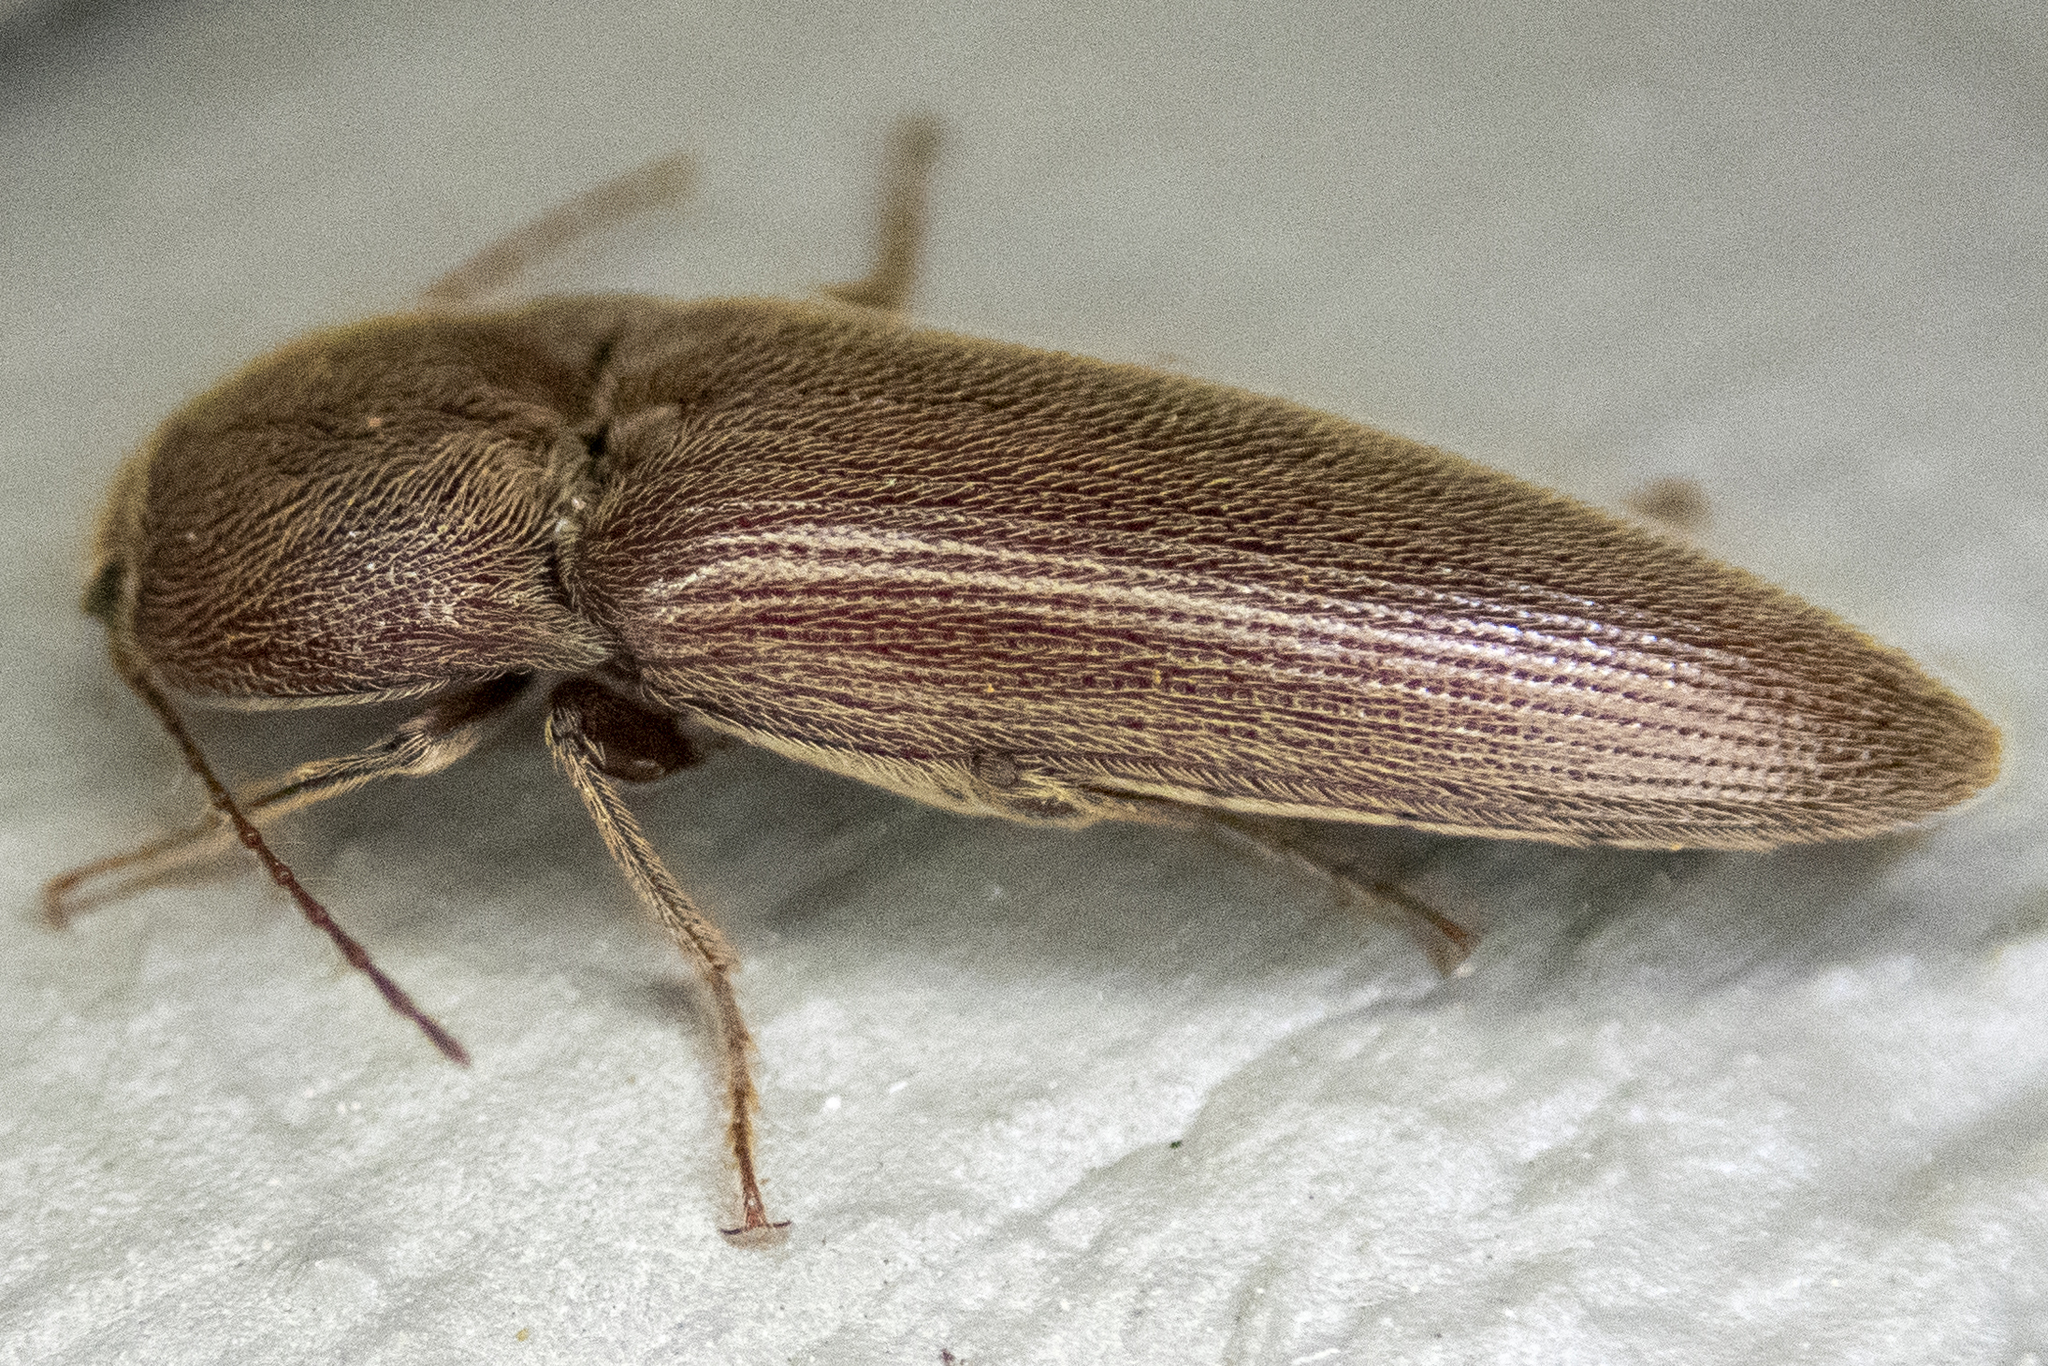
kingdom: Animalia
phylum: Arthropoda
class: Insecta
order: Coleoptera
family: Elateridae
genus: Melanotus
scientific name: Melanotus
